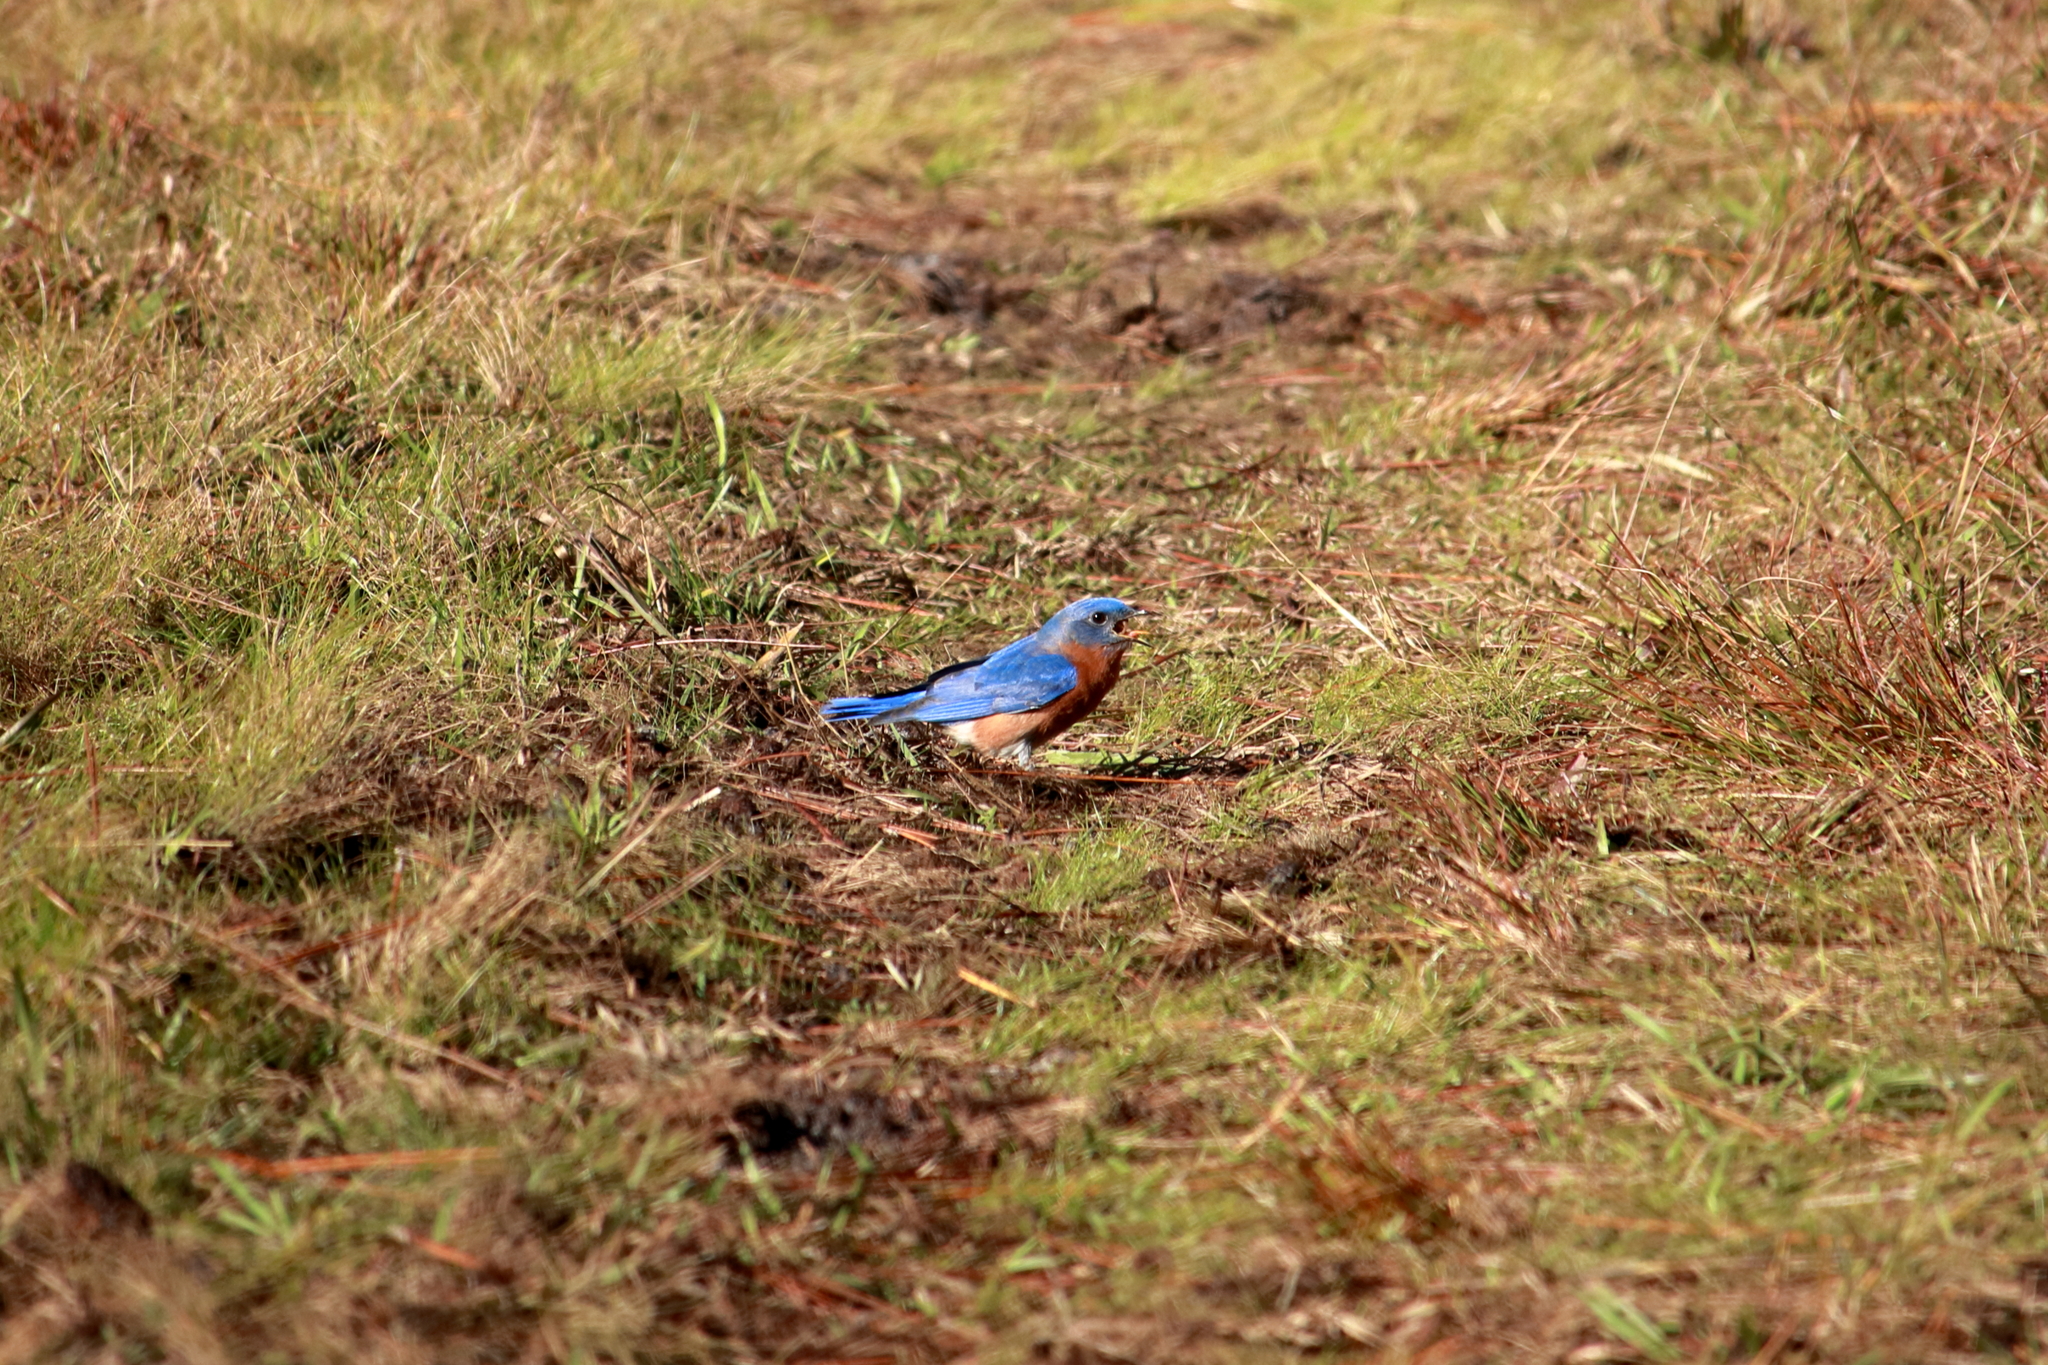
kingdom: Animalia
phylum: Chordata
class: Aves
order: Passeriformes
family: Turdidae
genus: Sialia
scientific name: Sialia sialis
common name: Eastern bluebird
